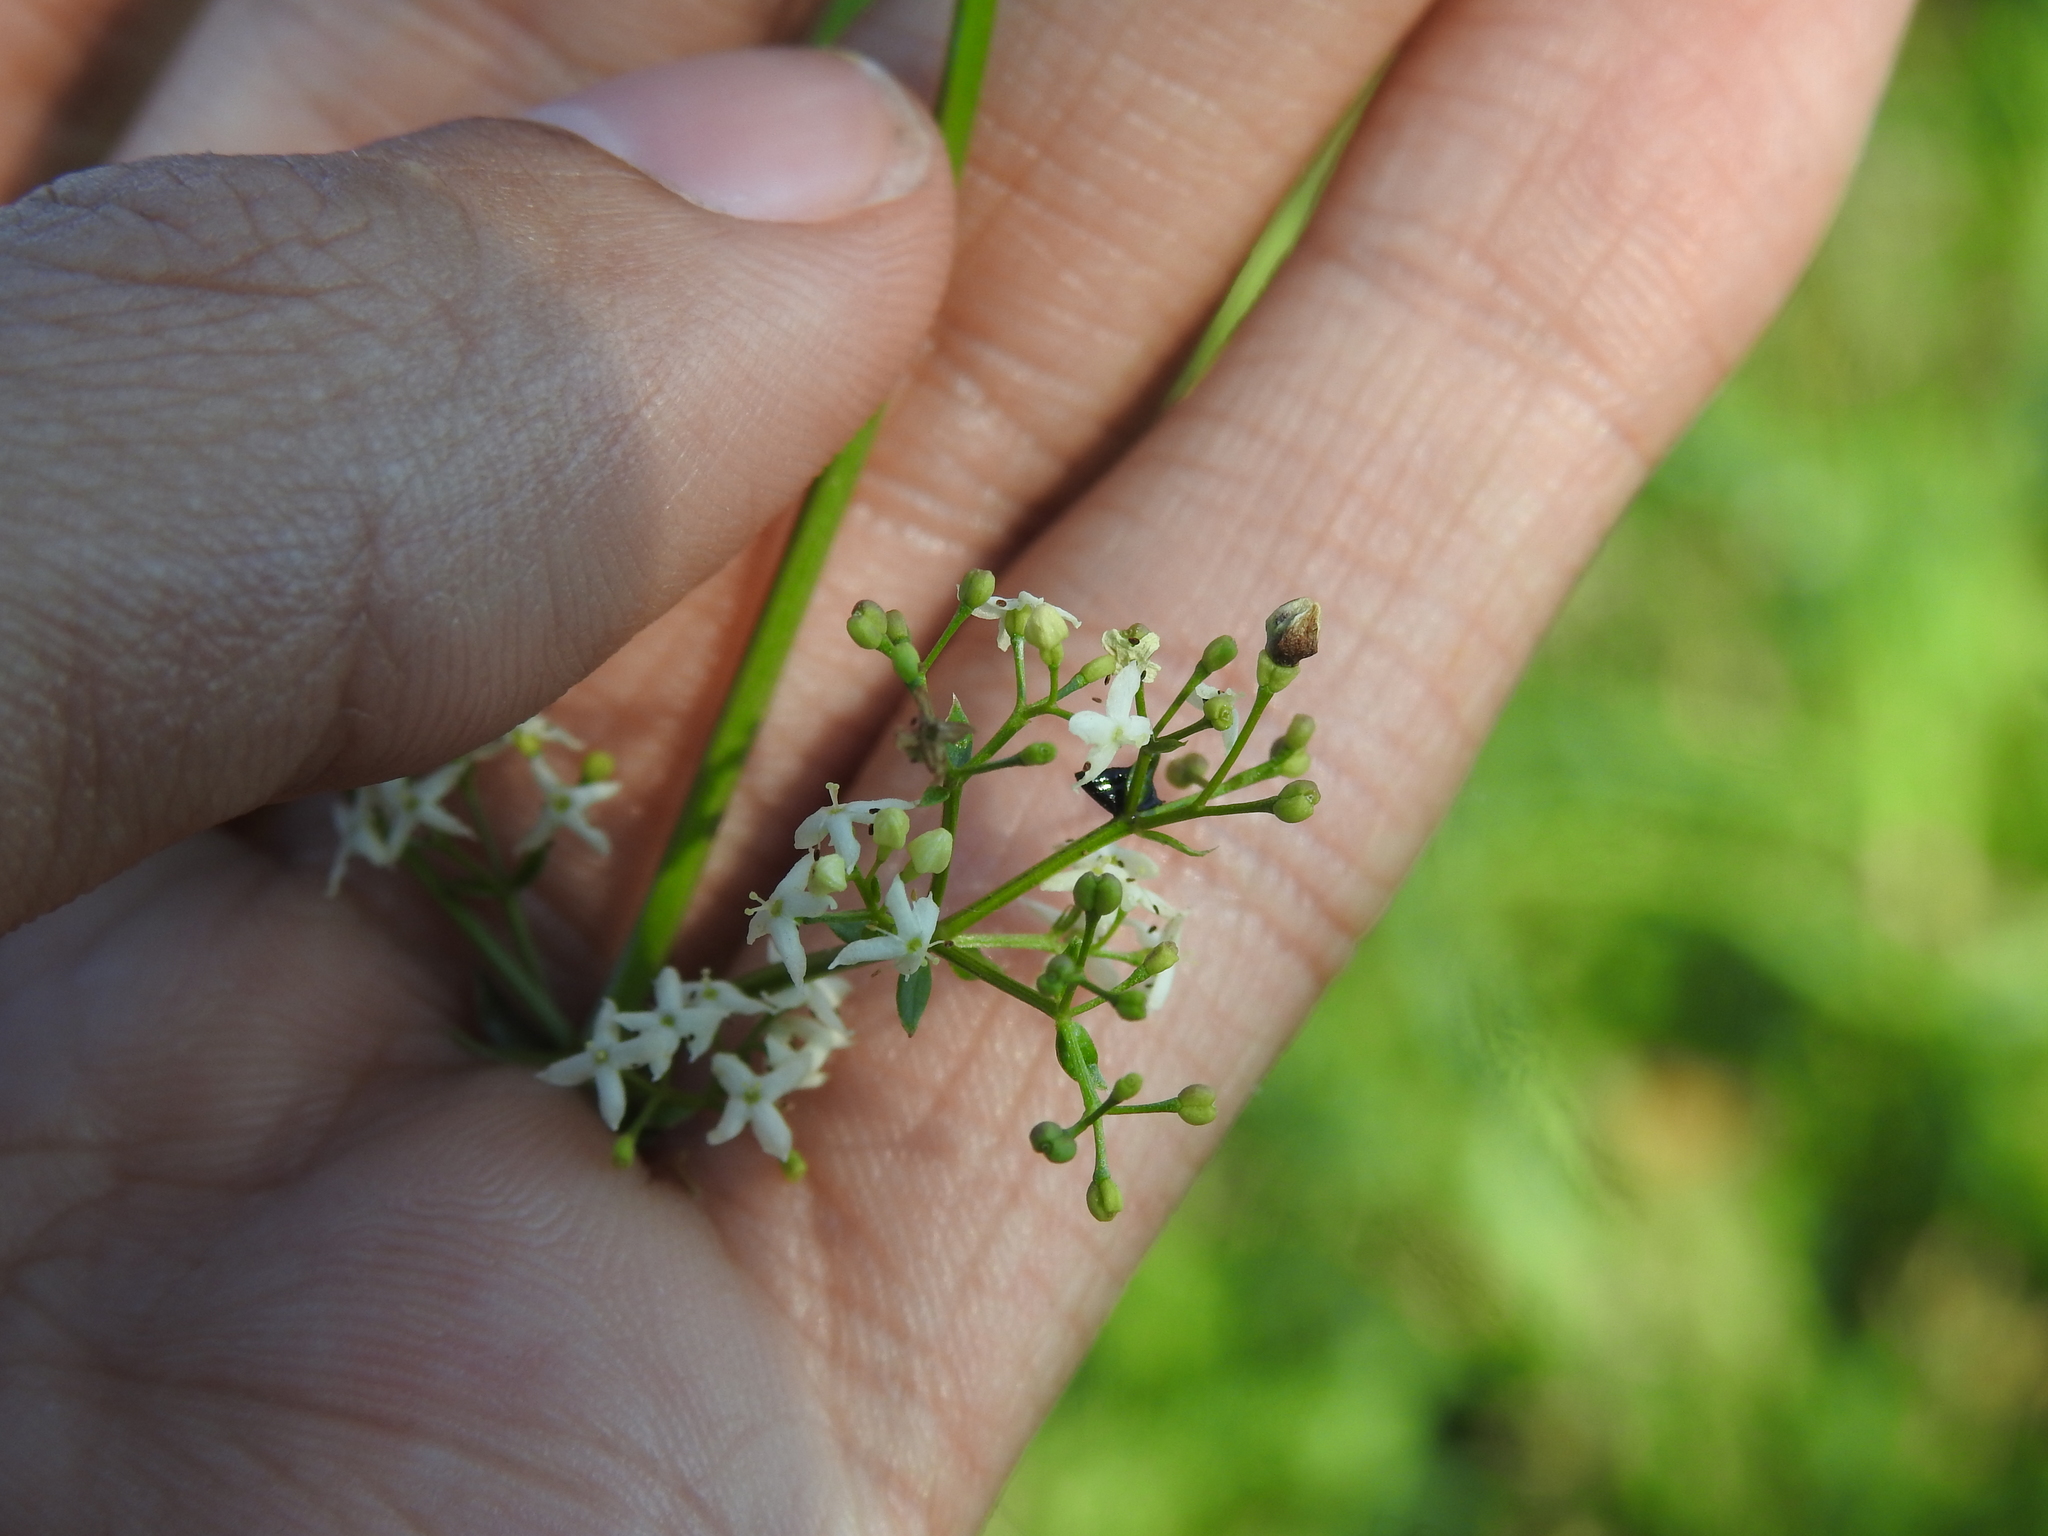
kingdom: Animalia
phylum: Arthropoda
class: Insecta
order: Diptera
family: Cecidomyiidae
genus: Schizomyia
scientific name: Schizomyia galiorum
